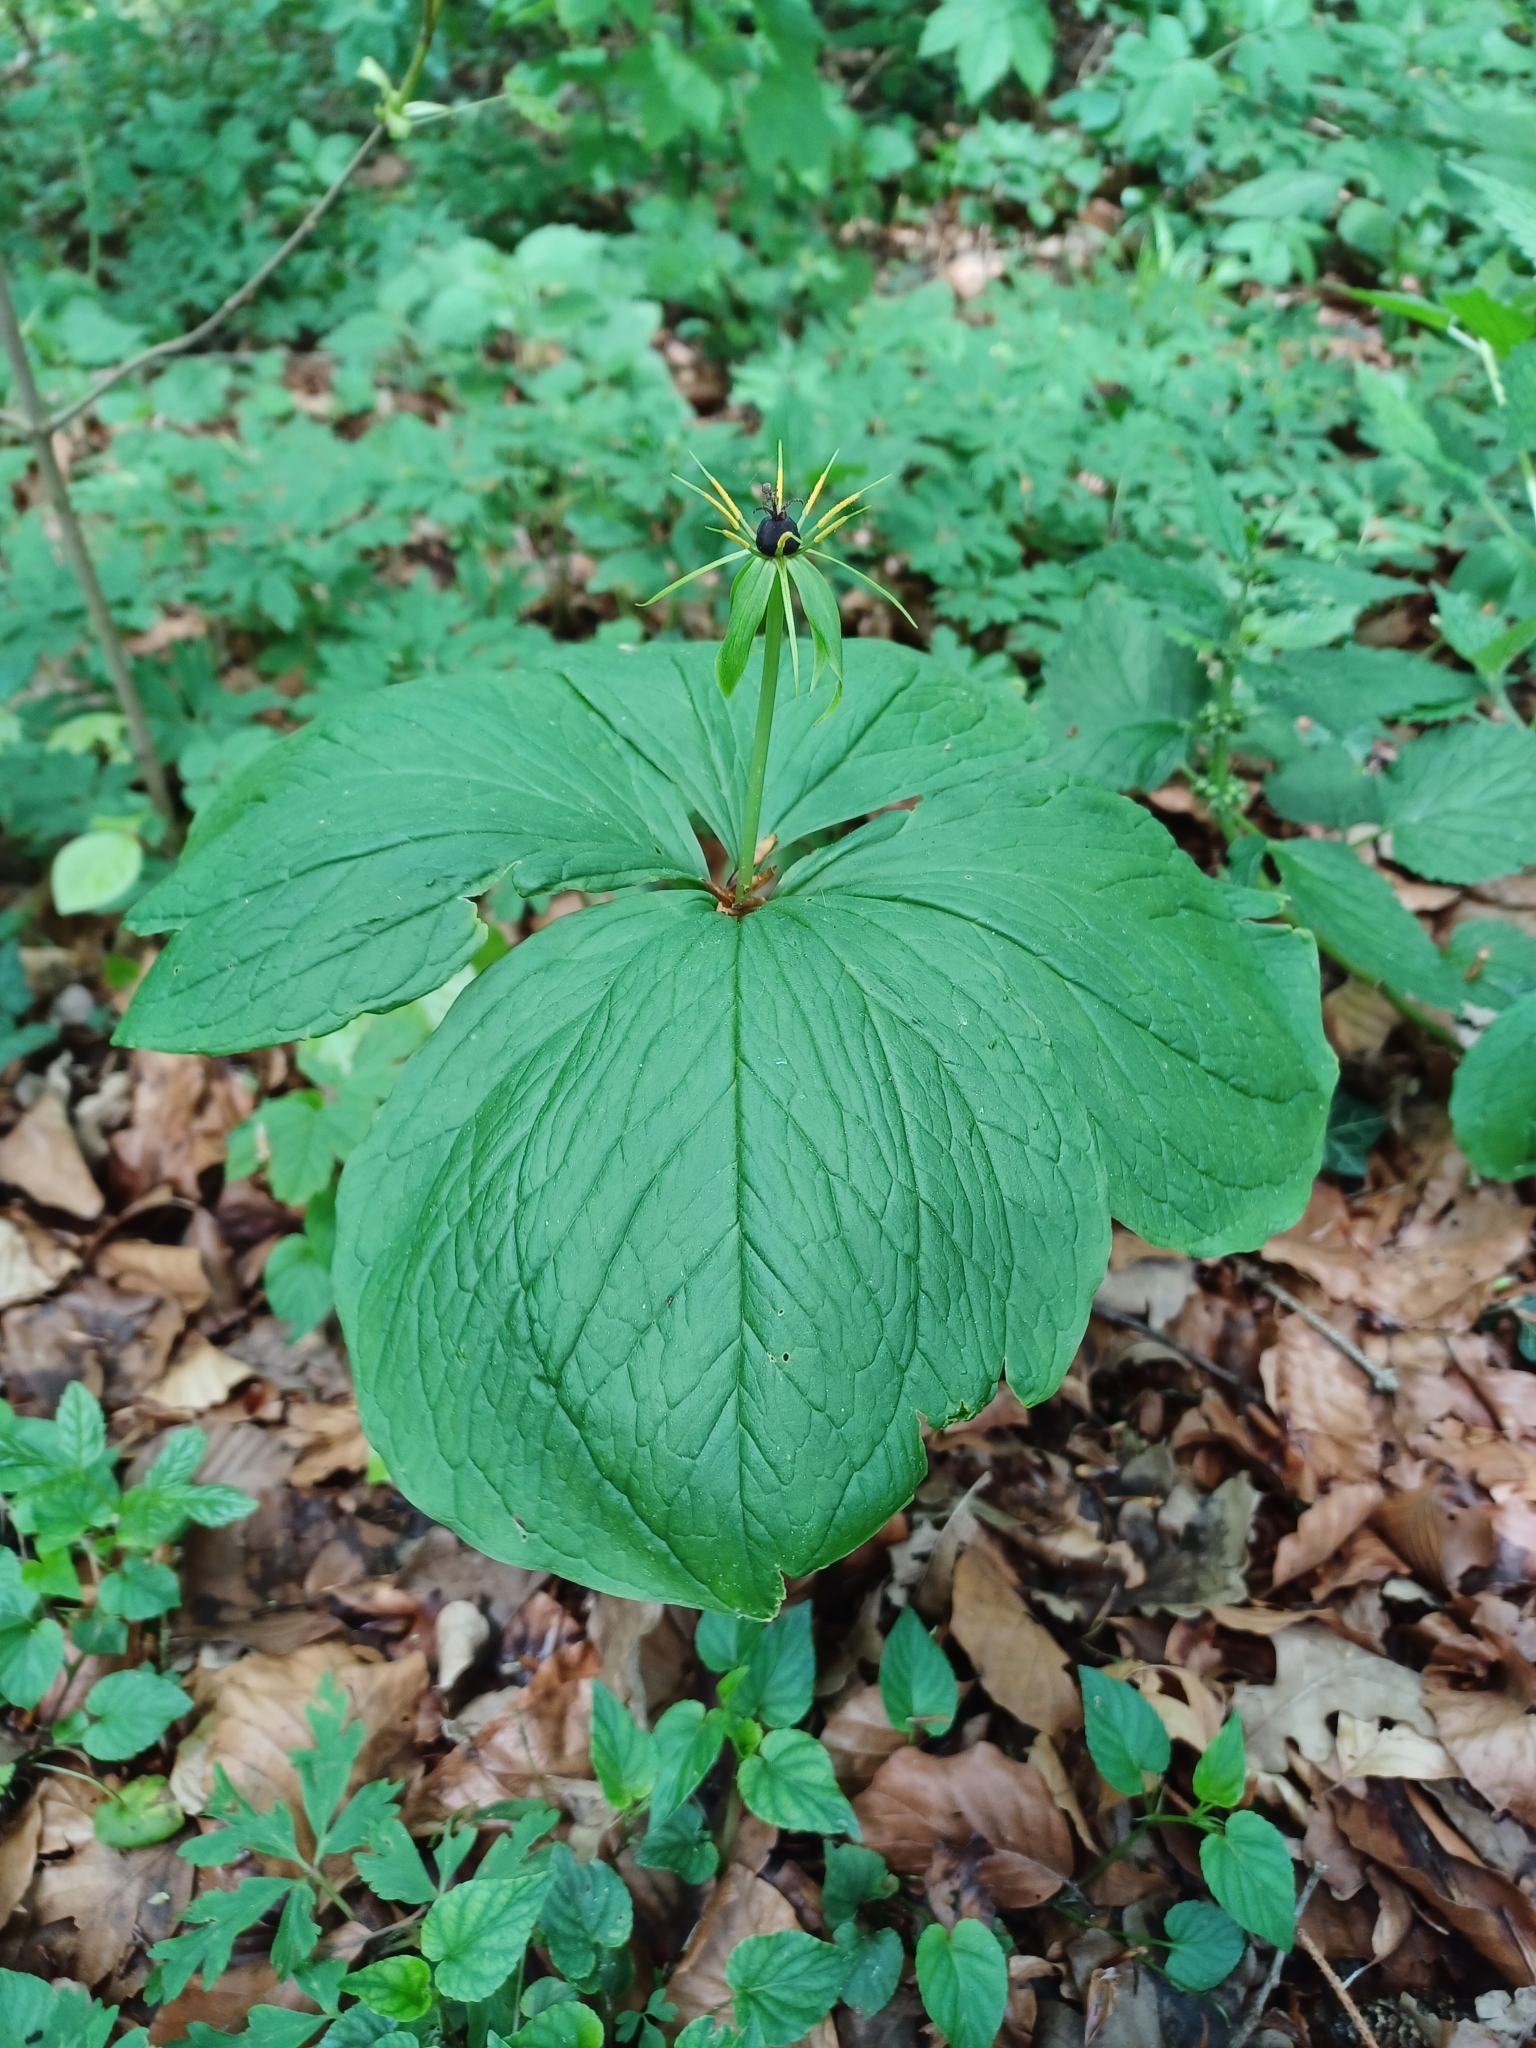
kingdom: Plantae
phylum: Tracheophyta
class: Liliopsida
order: Liliales
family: Melanthiaceae
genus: Paris
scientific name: Paris quadrifolia
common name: Herb-paris
